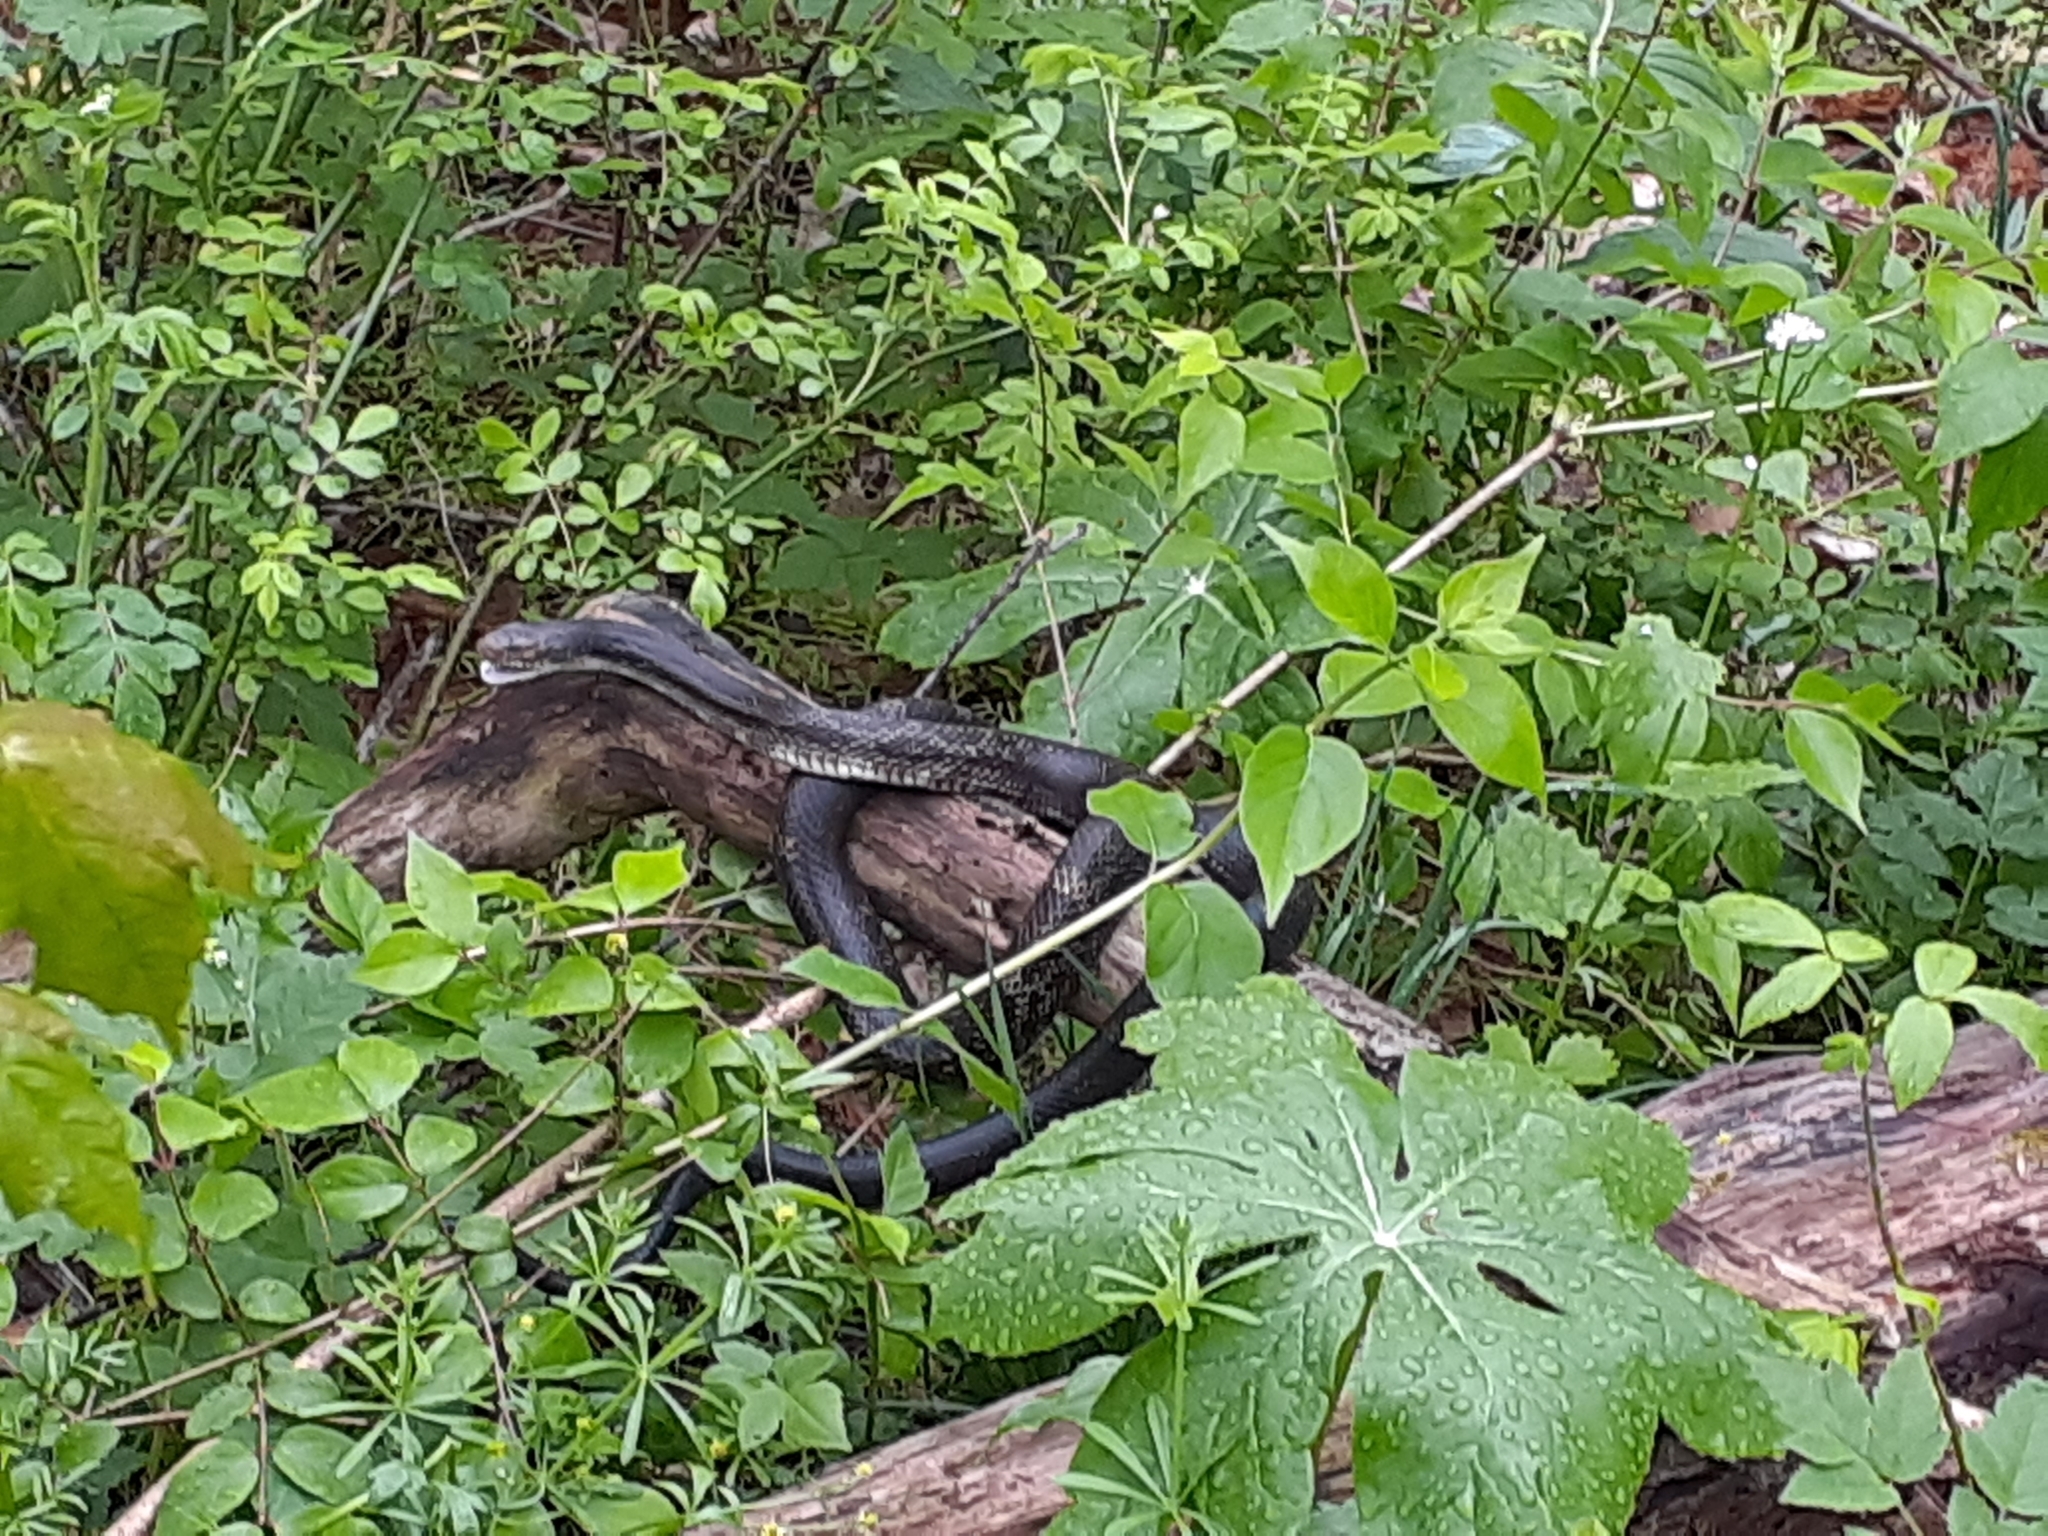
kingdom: Animalia
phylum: Chordata
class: Squamata
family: Colubridae
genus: Pantherophis
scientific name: Pantherophis spiloides
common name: Gray rat snake
